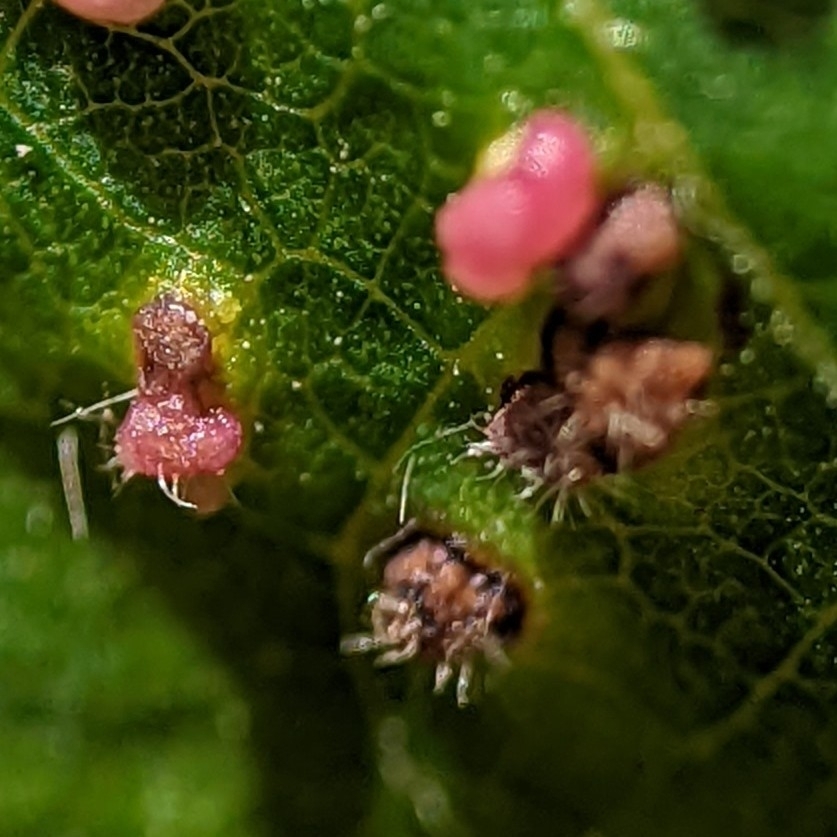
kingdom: Animalia
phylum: Arthropoda
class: Arachnida
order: Trombidiformes
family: Eriophyidae
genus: Aculops
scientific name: Aculops
